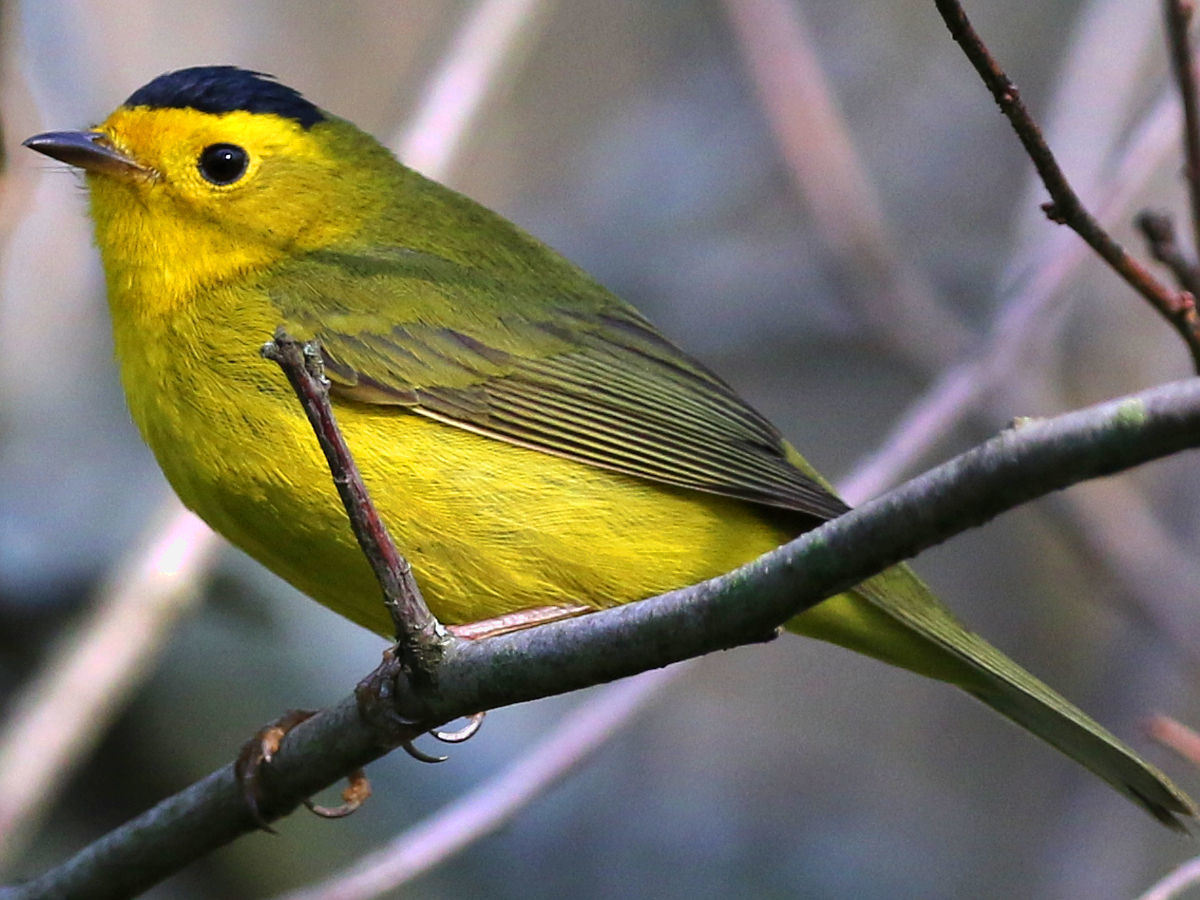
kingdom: Animalia
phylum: Chordata
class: Aves
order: Passeriformes
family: Parulidae
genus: Cardellina
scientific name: Cardellina pusilla
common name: Wilson's warbler
